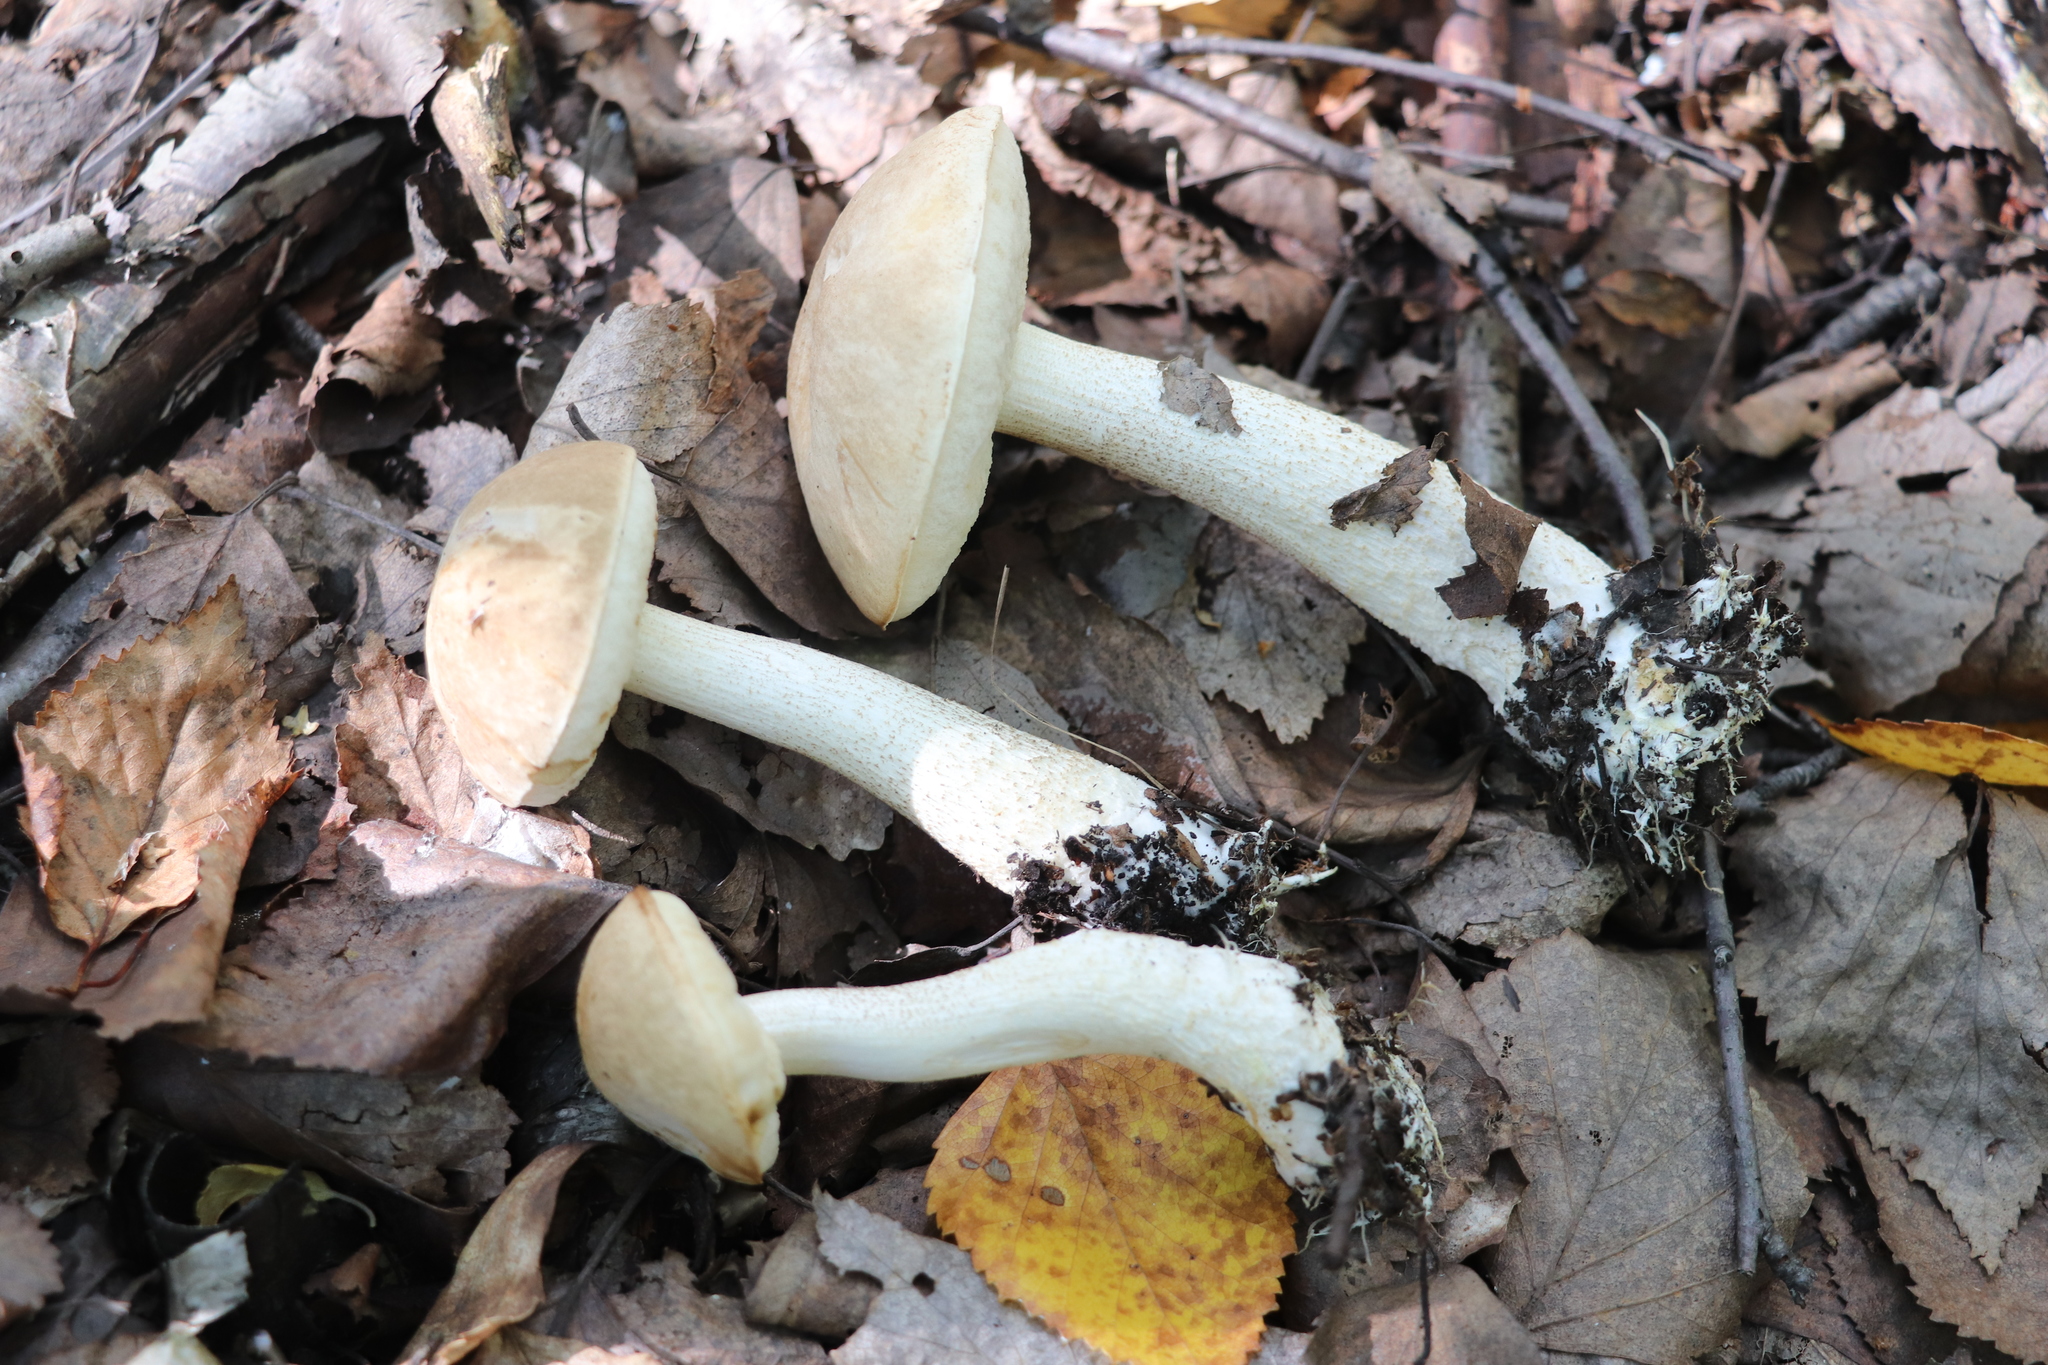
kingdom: Fungi
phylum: Basidiomycota
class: Agaricomycetes
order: Boletales
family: Boletaceae
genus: Leccinum
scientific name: Leccinum scabrum
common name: Blushing bolete
